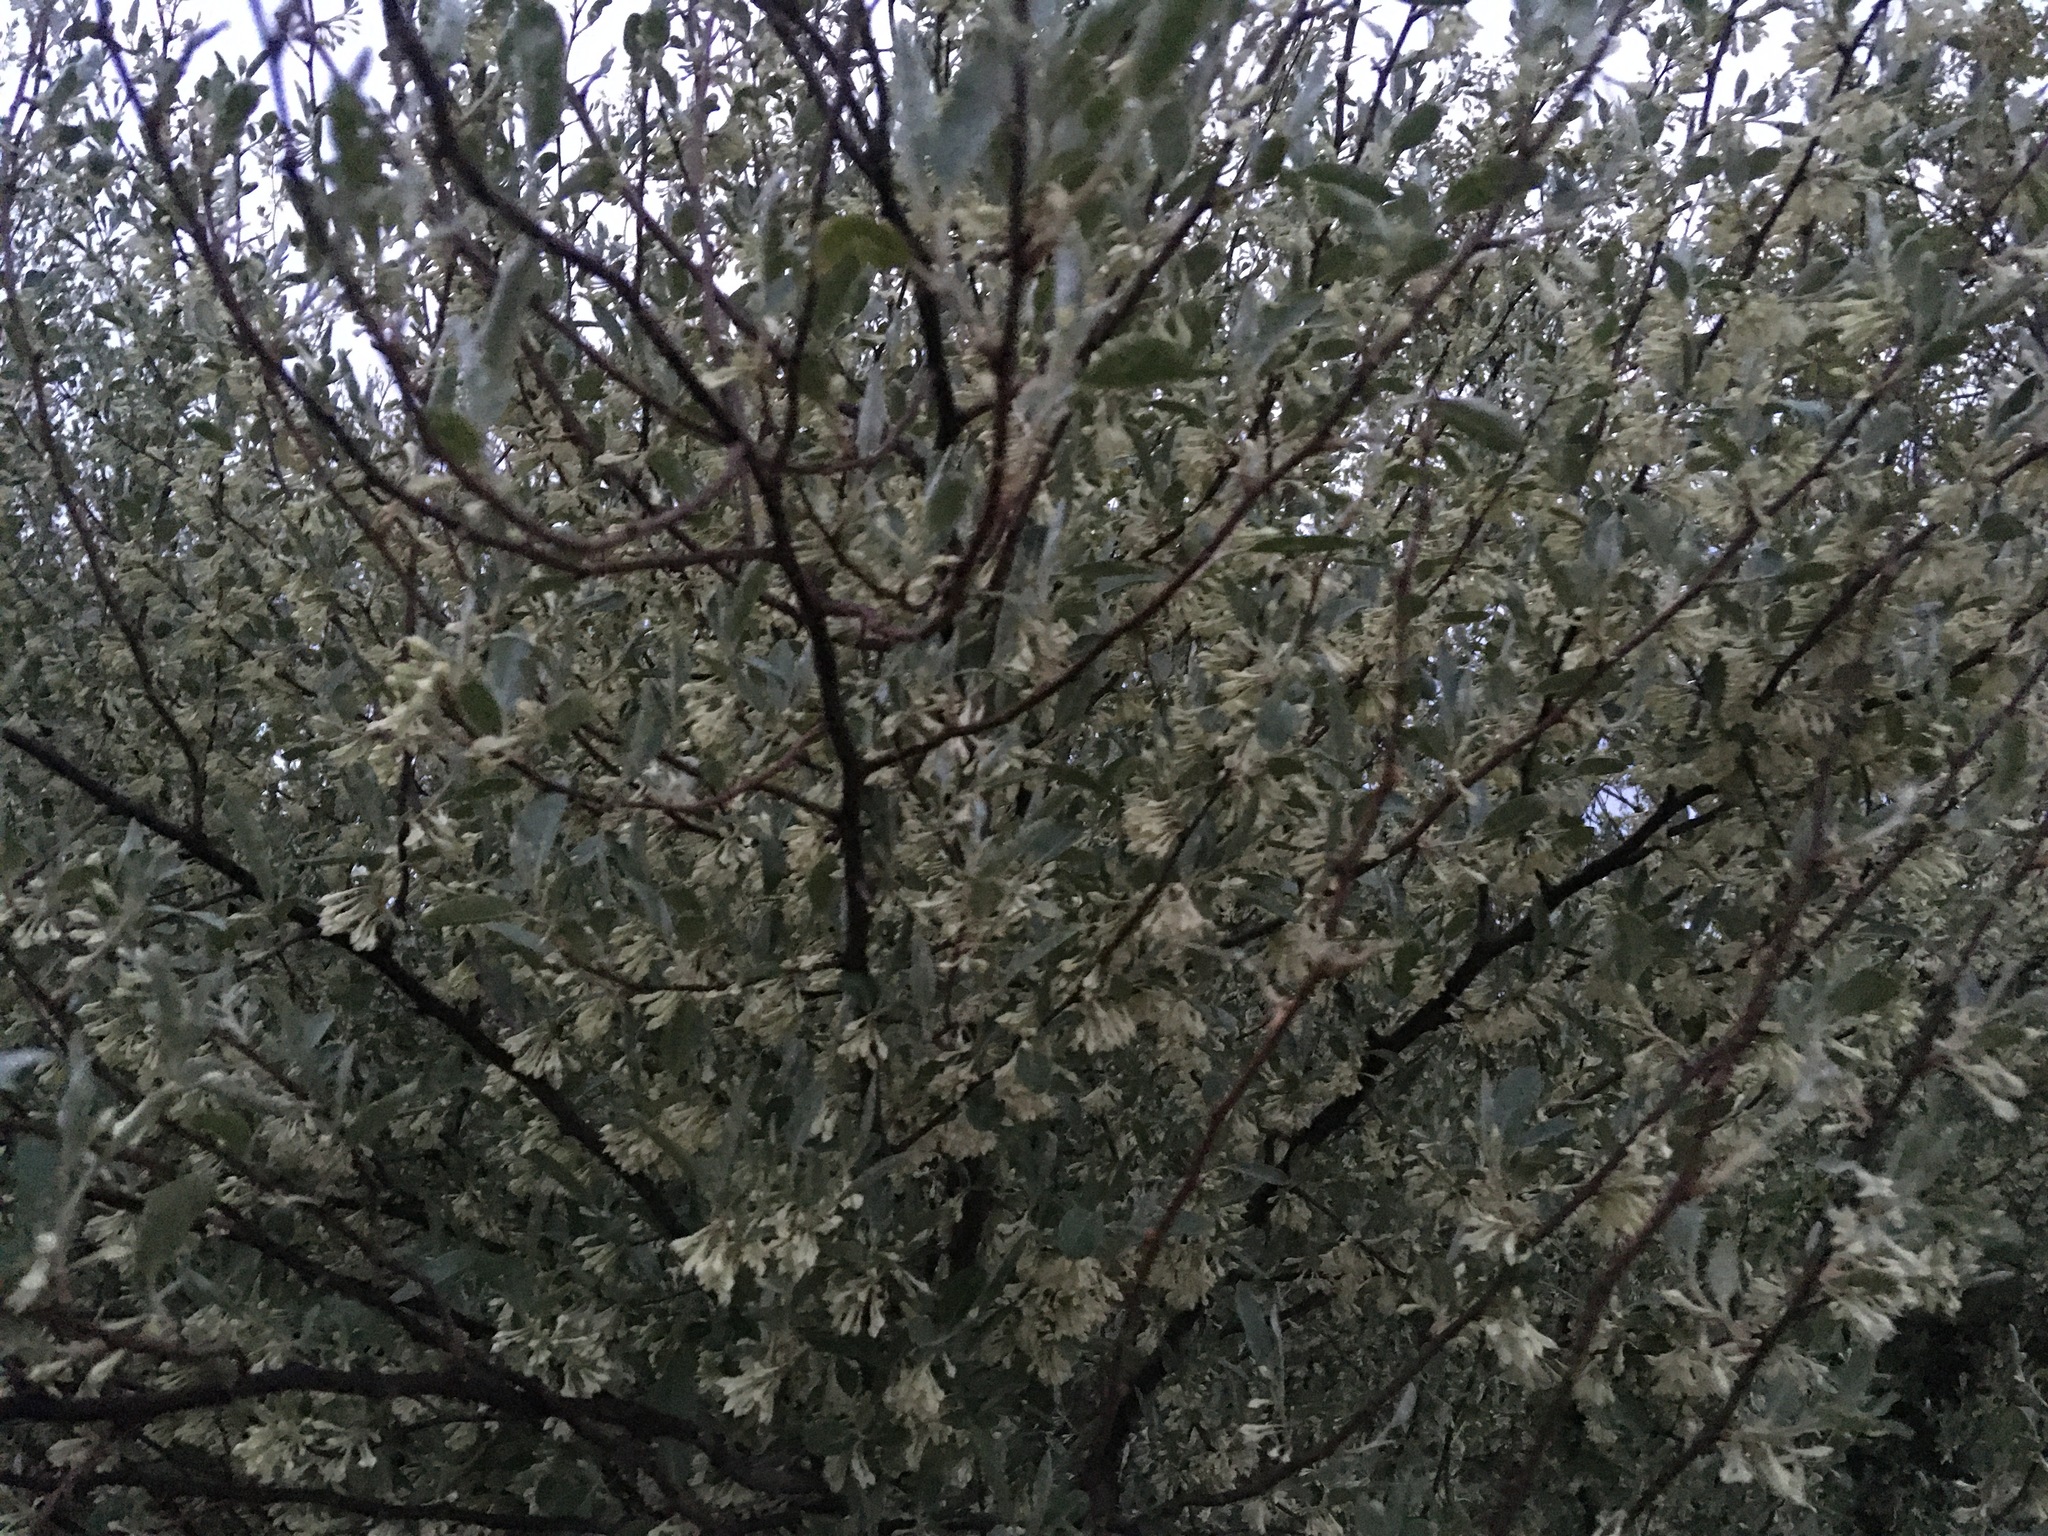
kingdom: Plantae
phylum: Tracheophyta
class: Magnoliopsida
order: Rosales
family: Elaeagnaceae
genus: Elaeagnus
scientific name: Elaeagnus umbellata
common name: Autumn olive
